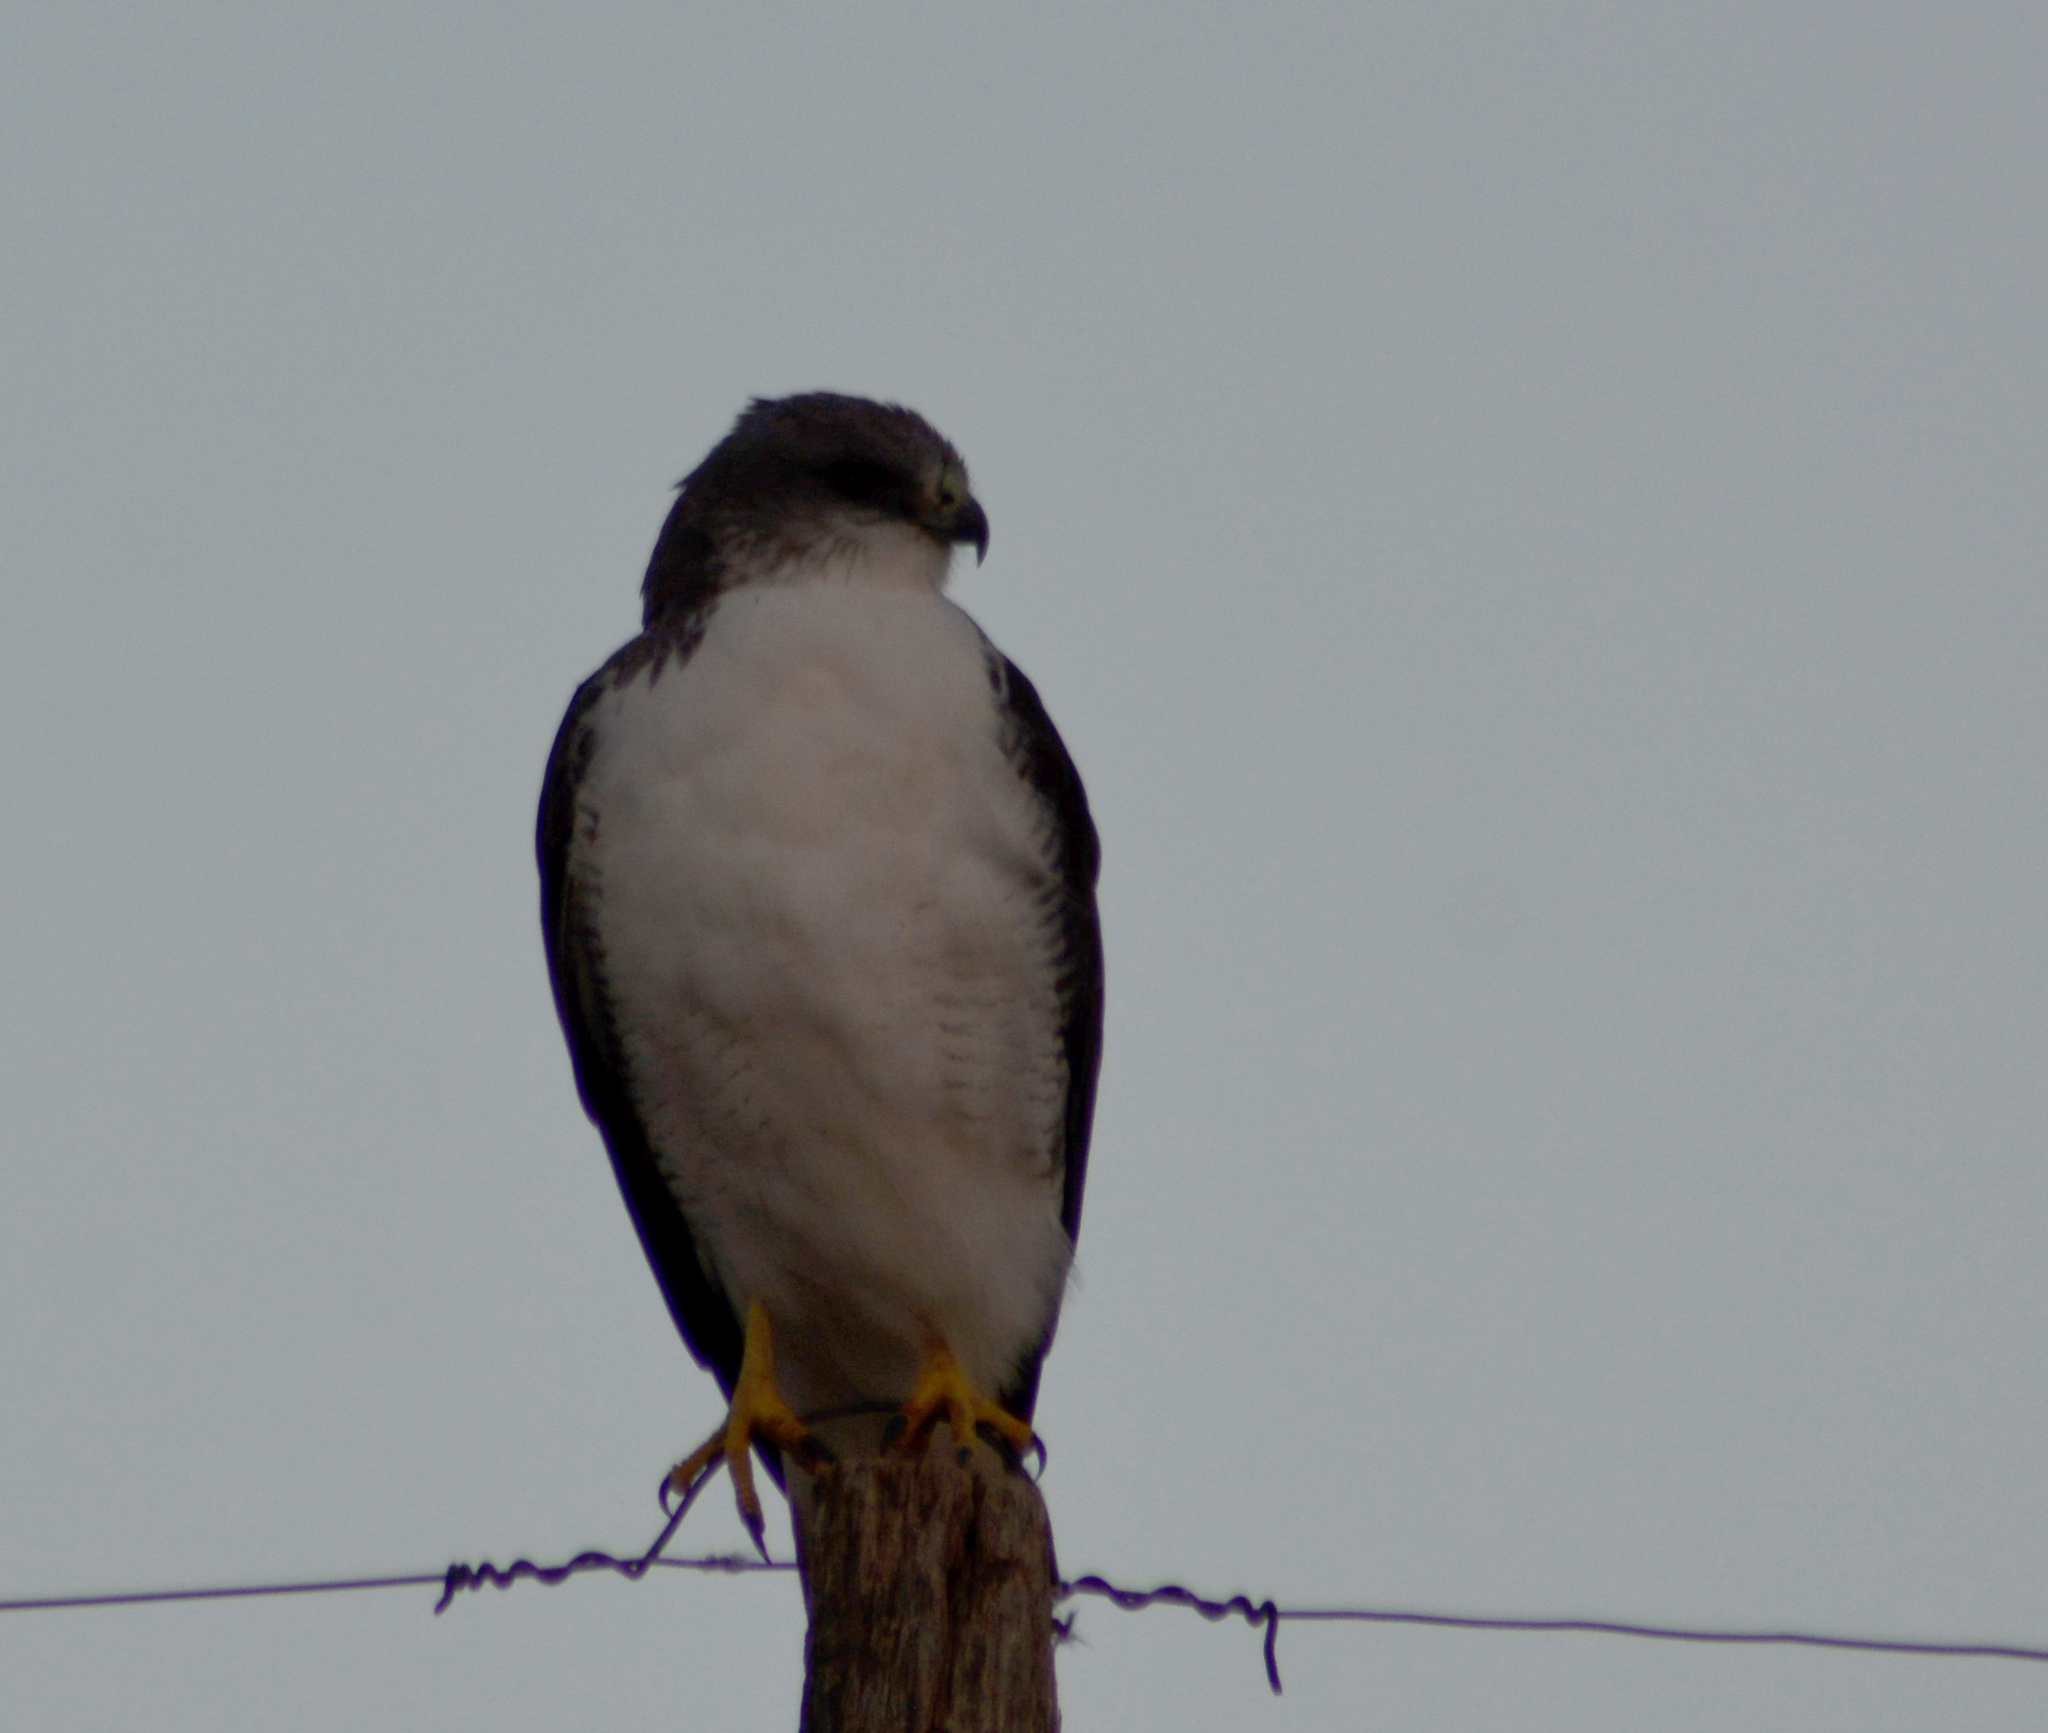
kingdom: Animalia
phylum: Chordata
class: Aves
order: Accipitriformes
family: Accipitridae
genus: Buteo
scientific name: Buteo polyosoma
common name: Variable hawk
